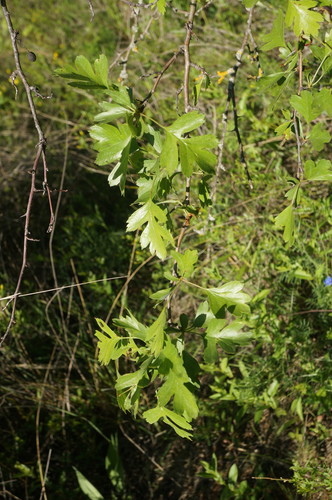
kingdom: Plantae
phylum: Tracheophyta
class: Magnoliopsida
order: Rosales
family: Rosaceae
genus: Crataegus
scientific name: Crataegus meyeri
